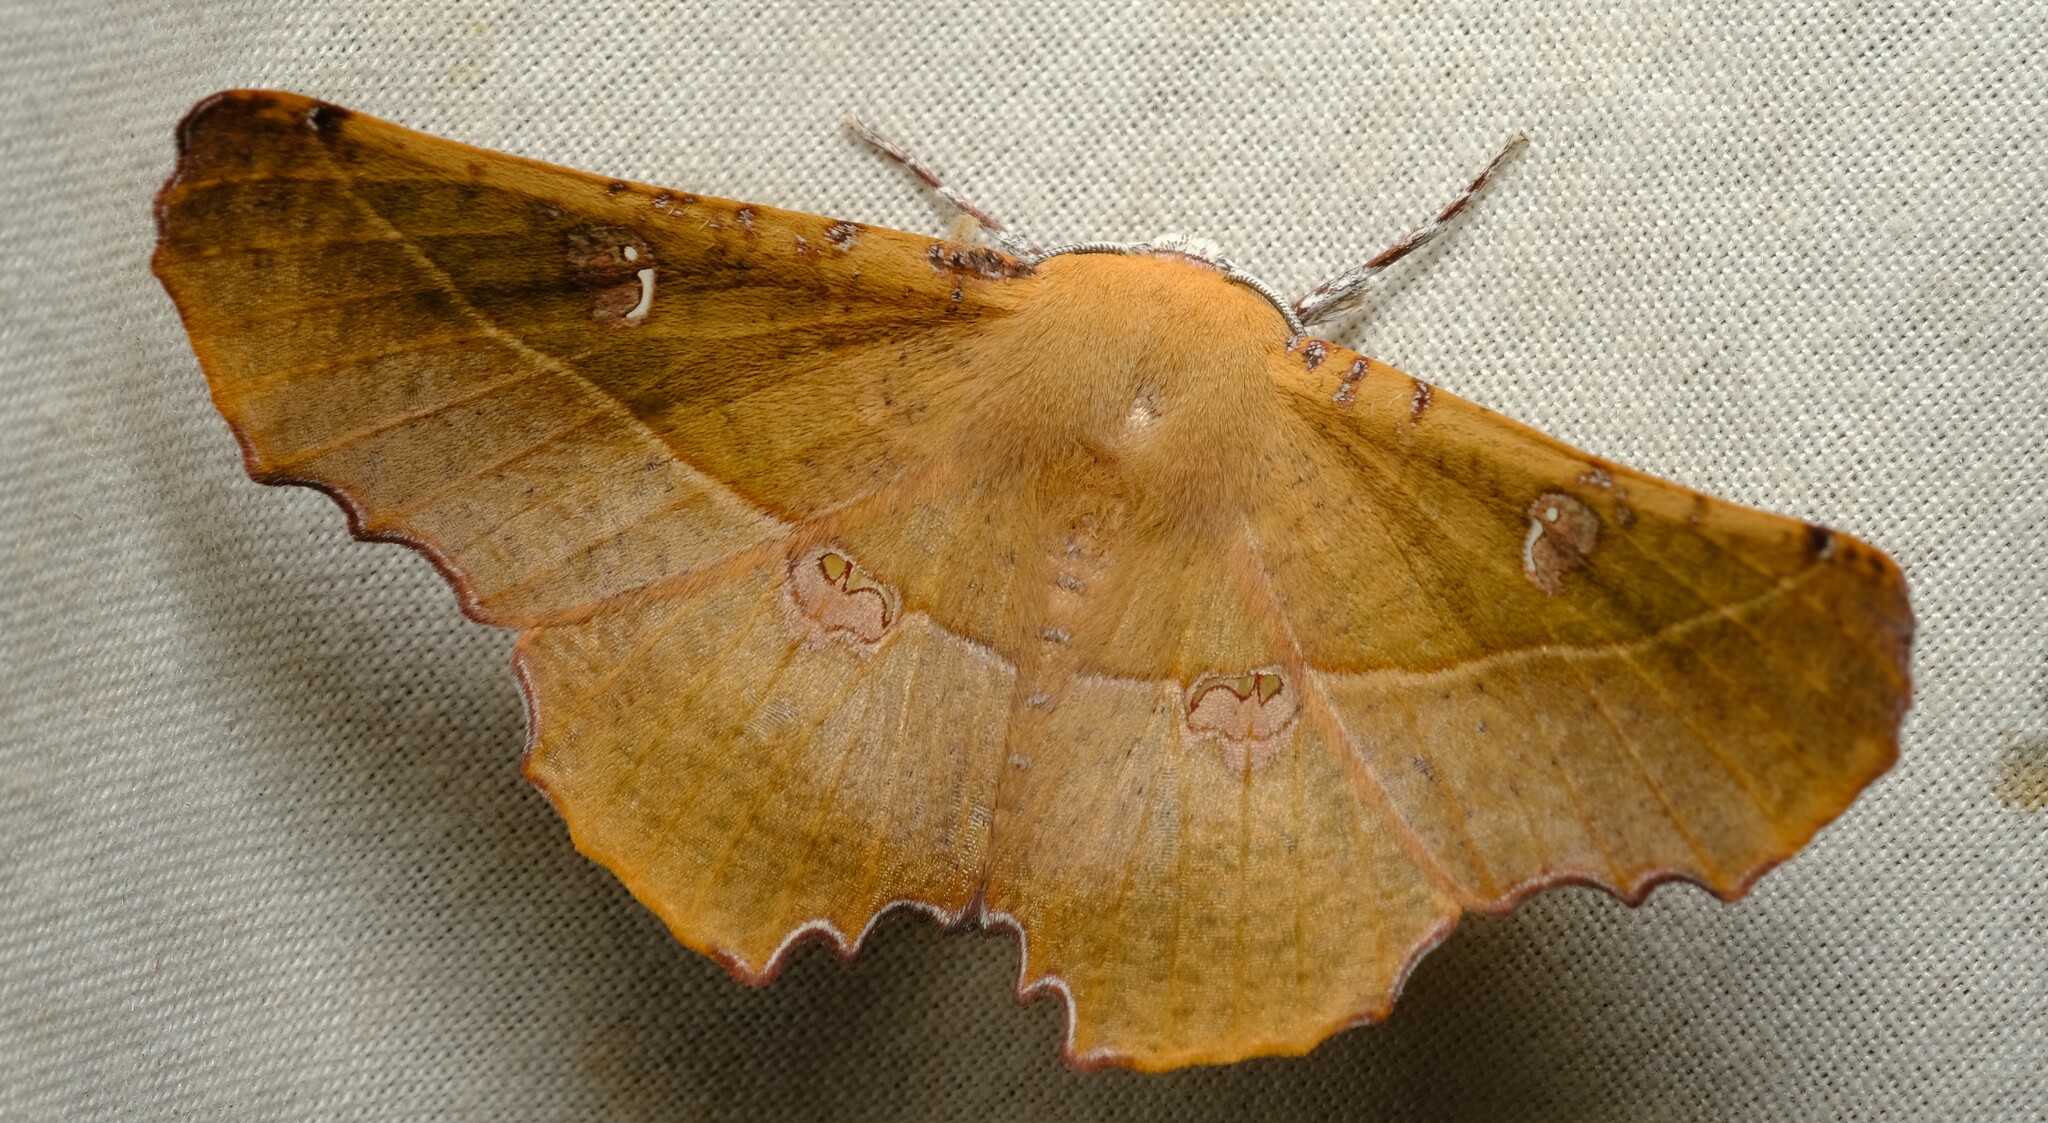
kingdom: Animalia
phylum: Arthropoda
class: Insecta
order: Lepidoptera
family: Geometridae
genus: Oenochroma
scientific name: Oenochroma quardrigramma
